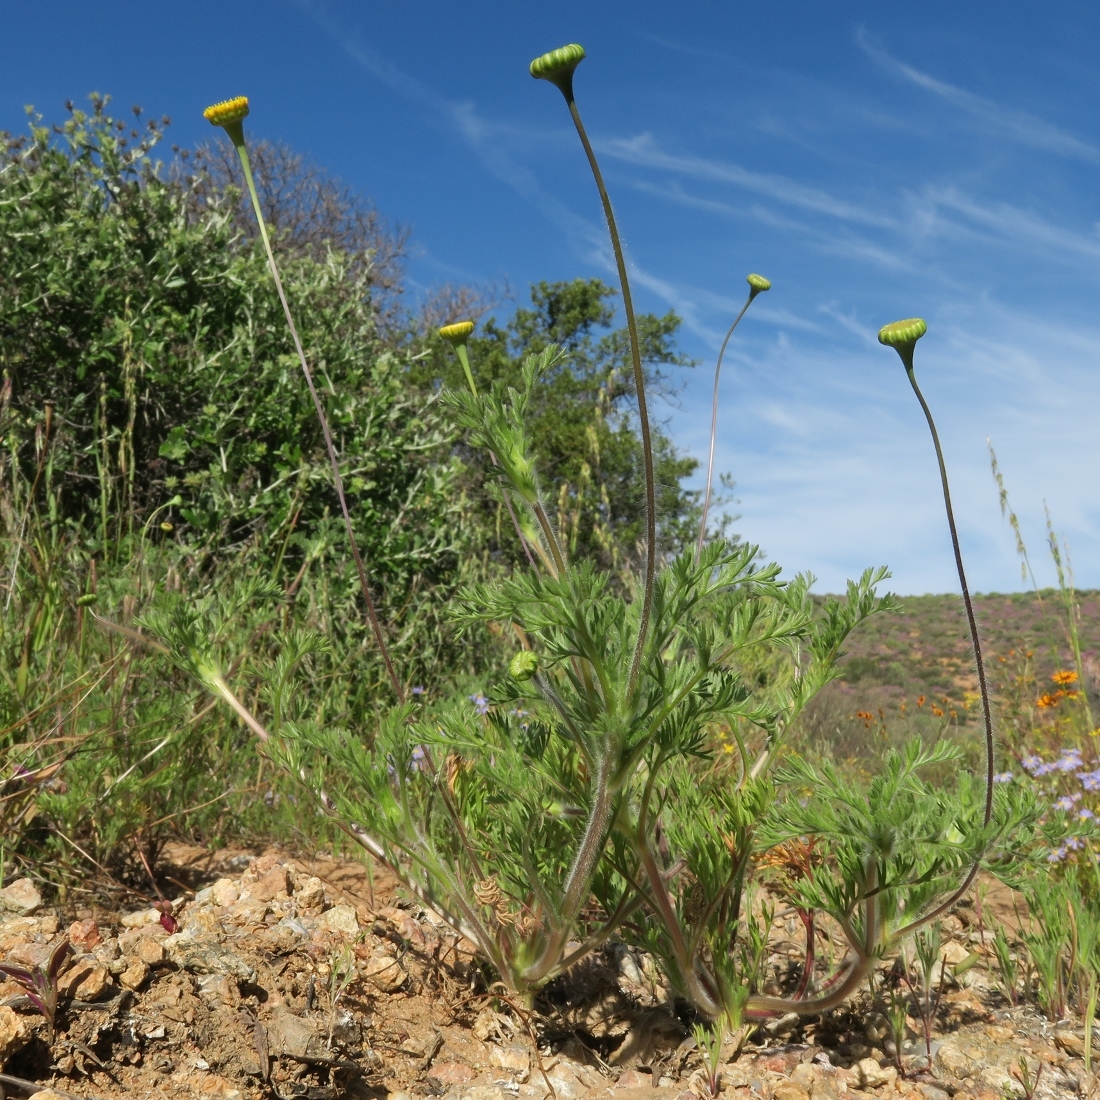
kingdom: Plantae
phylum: Tracheophyta
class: Magnoliopsida
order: Asterales
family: Asteraceae
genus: Cotula
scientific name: Cotula microglossa
